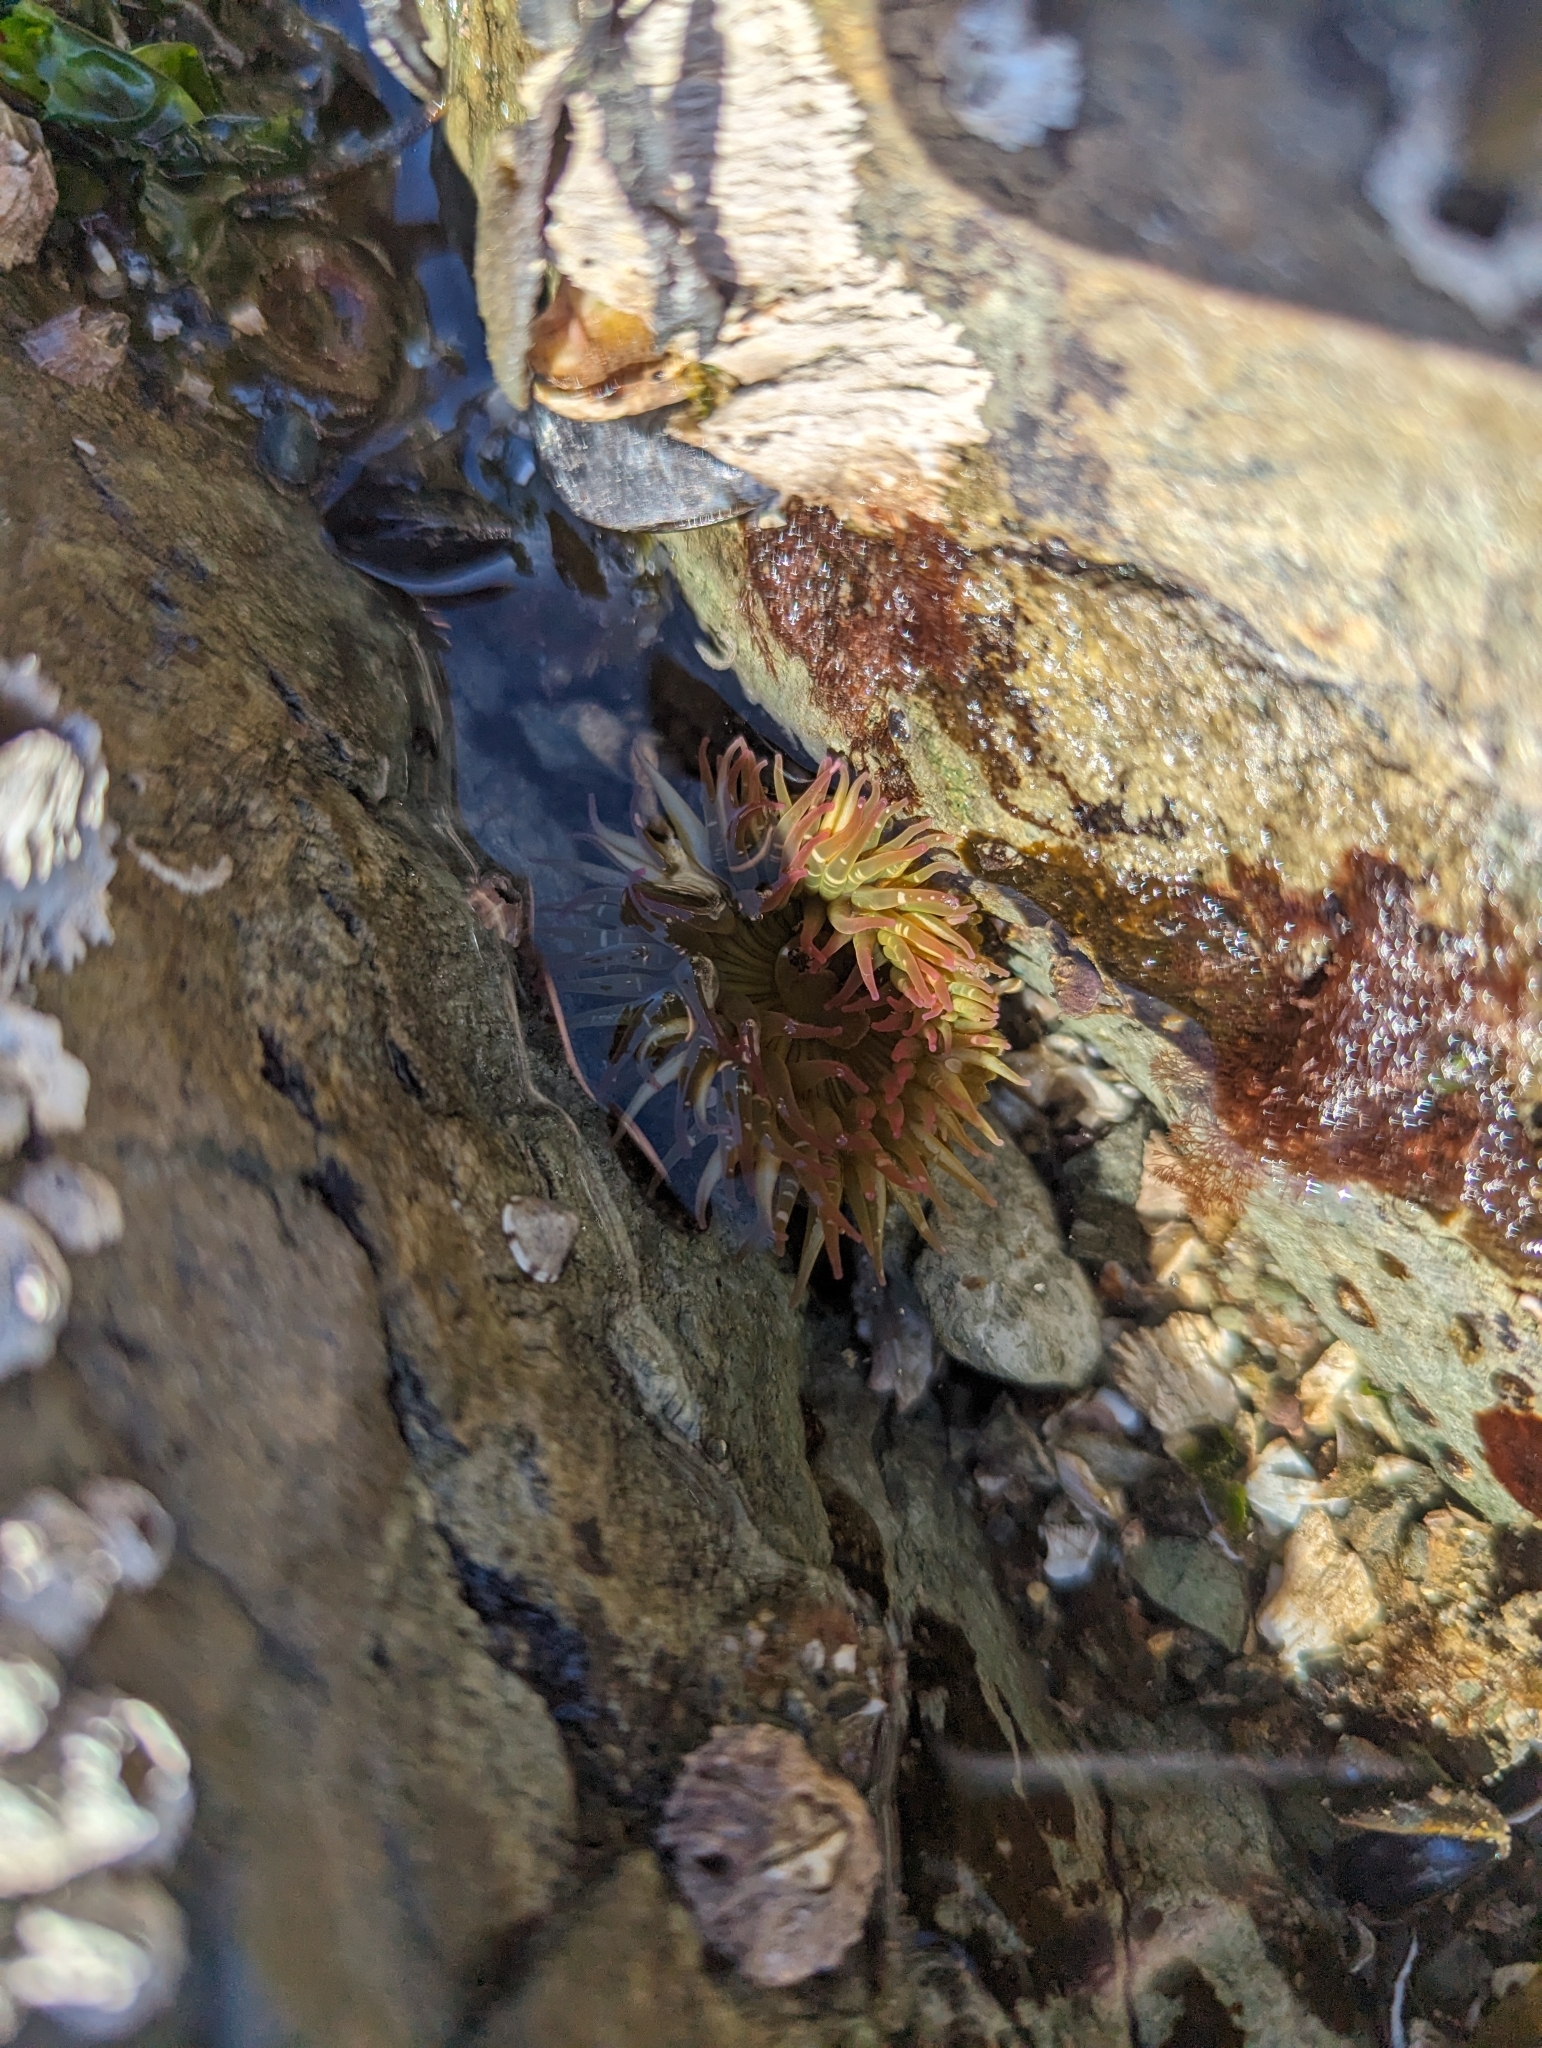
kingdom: Animalia
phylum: Cnidaria
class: Anthozoa
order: Actiniaria
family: Actiniidae
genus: Anthopleura
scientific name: Anthopleura elegantissima
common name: Clonal anemone
